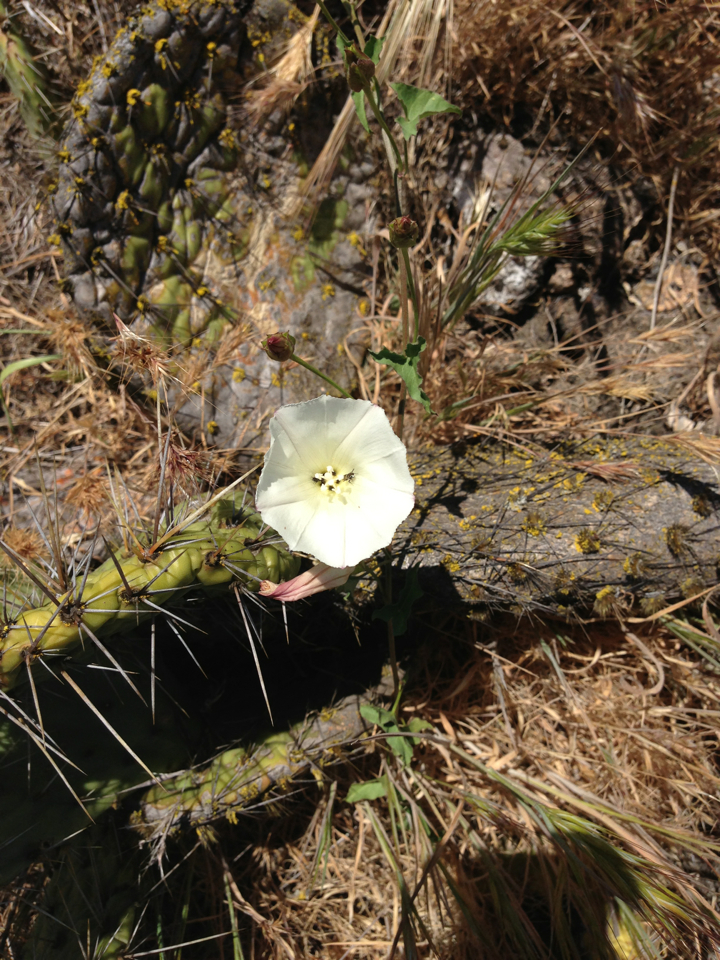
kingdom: Plantae
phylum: Tracheophyta
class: Magnoliopsida
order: Solanales
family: Convolvulaceae
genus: Calystegia
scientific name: Calystegia macrostegia
